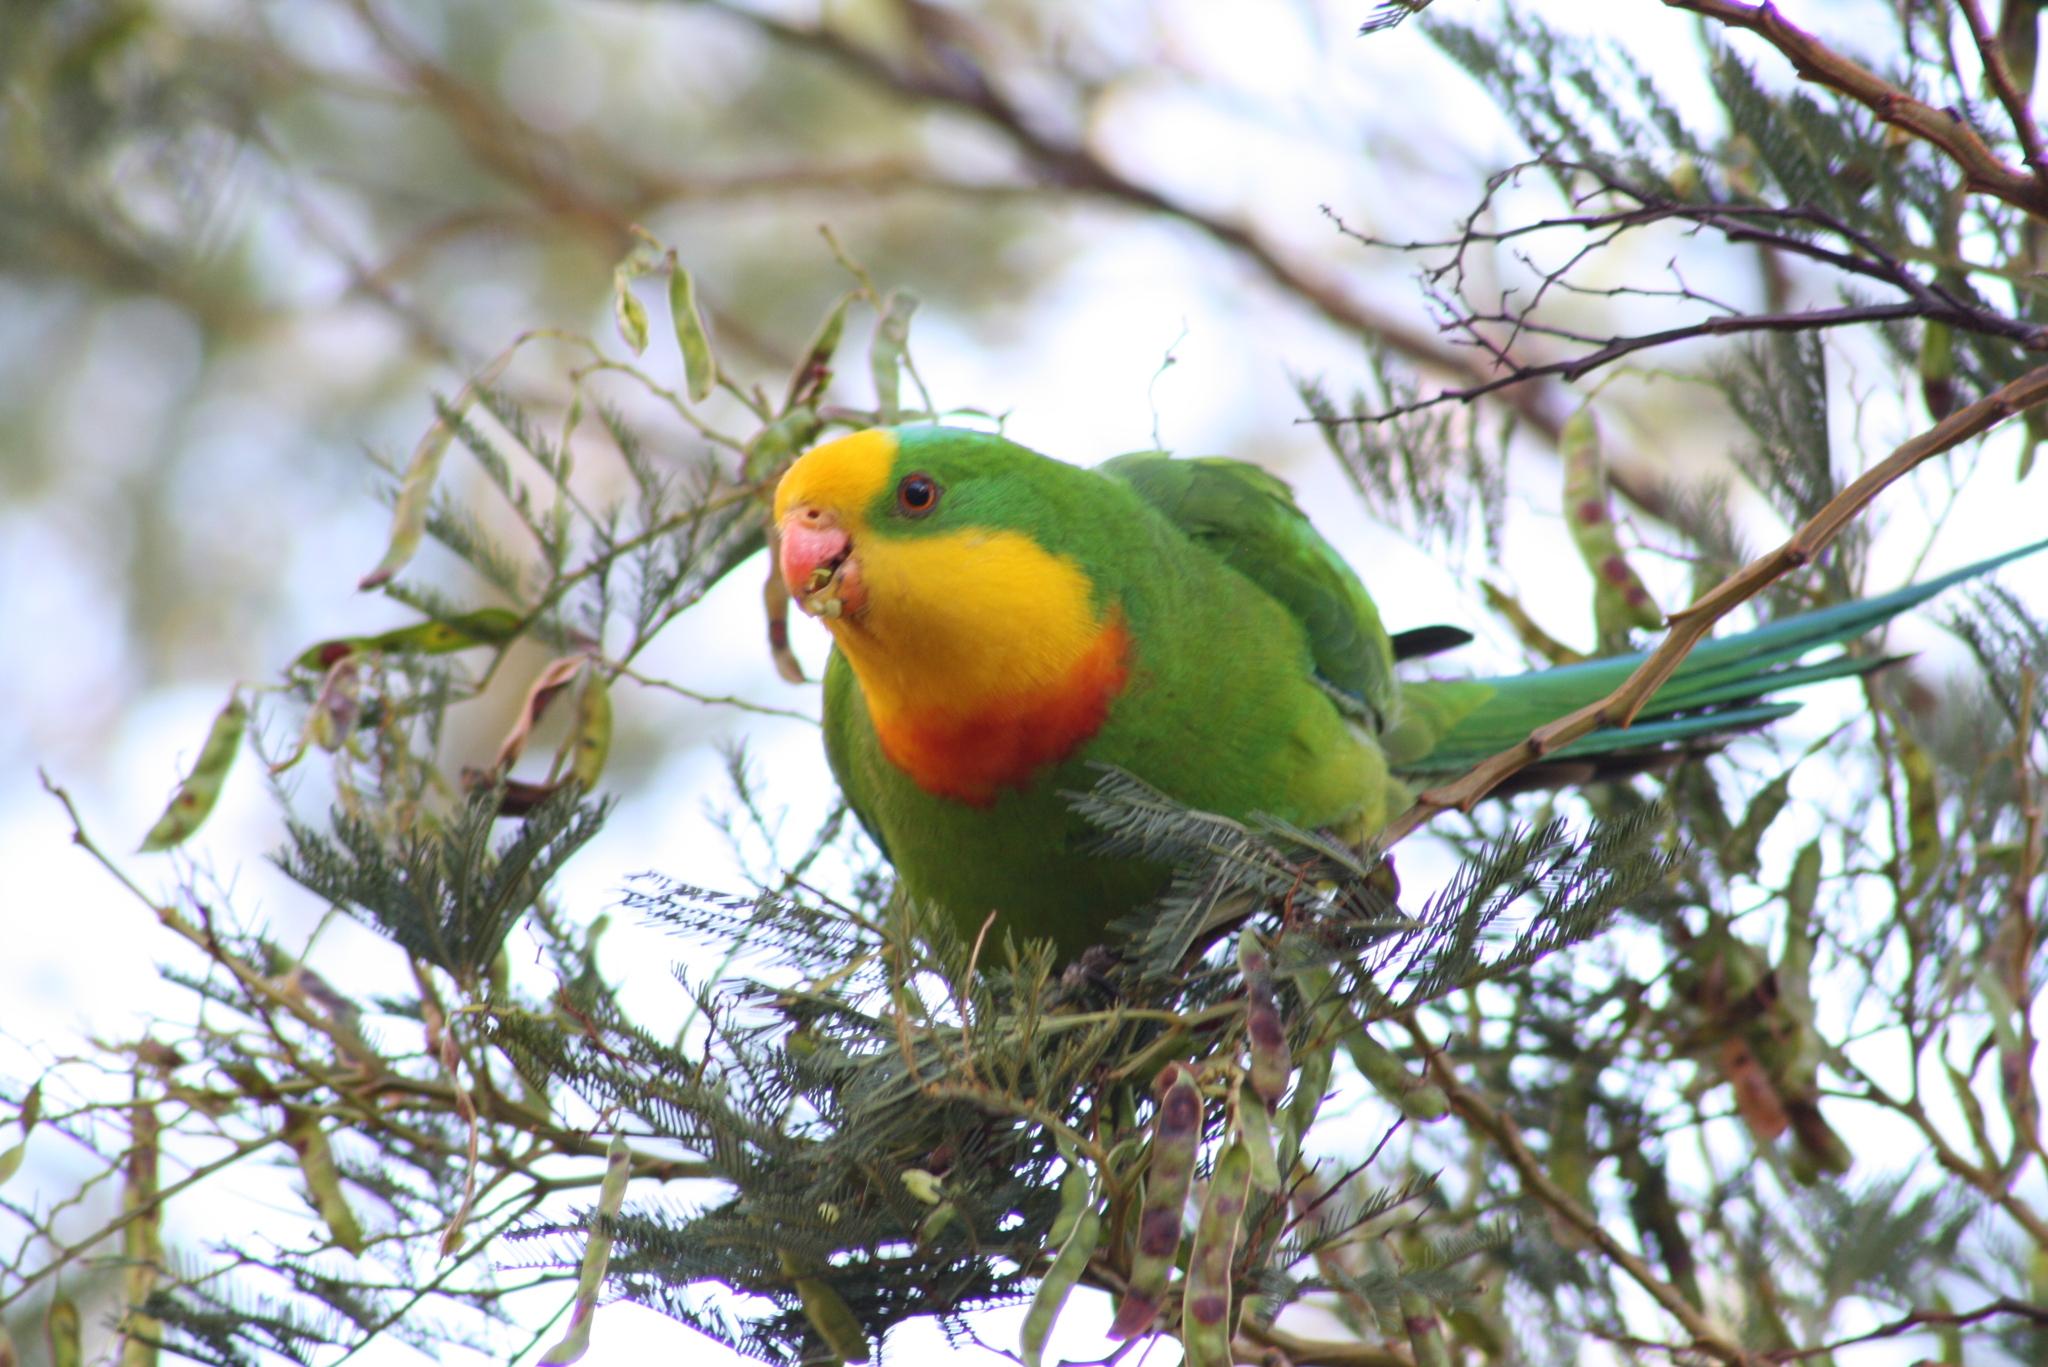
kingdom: Animalia
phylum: Chordata
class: Aves
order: Psittaciformes
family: Psittacidae
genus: Polytelis
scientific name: Polytelis swainsonii
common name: Superb parrot
